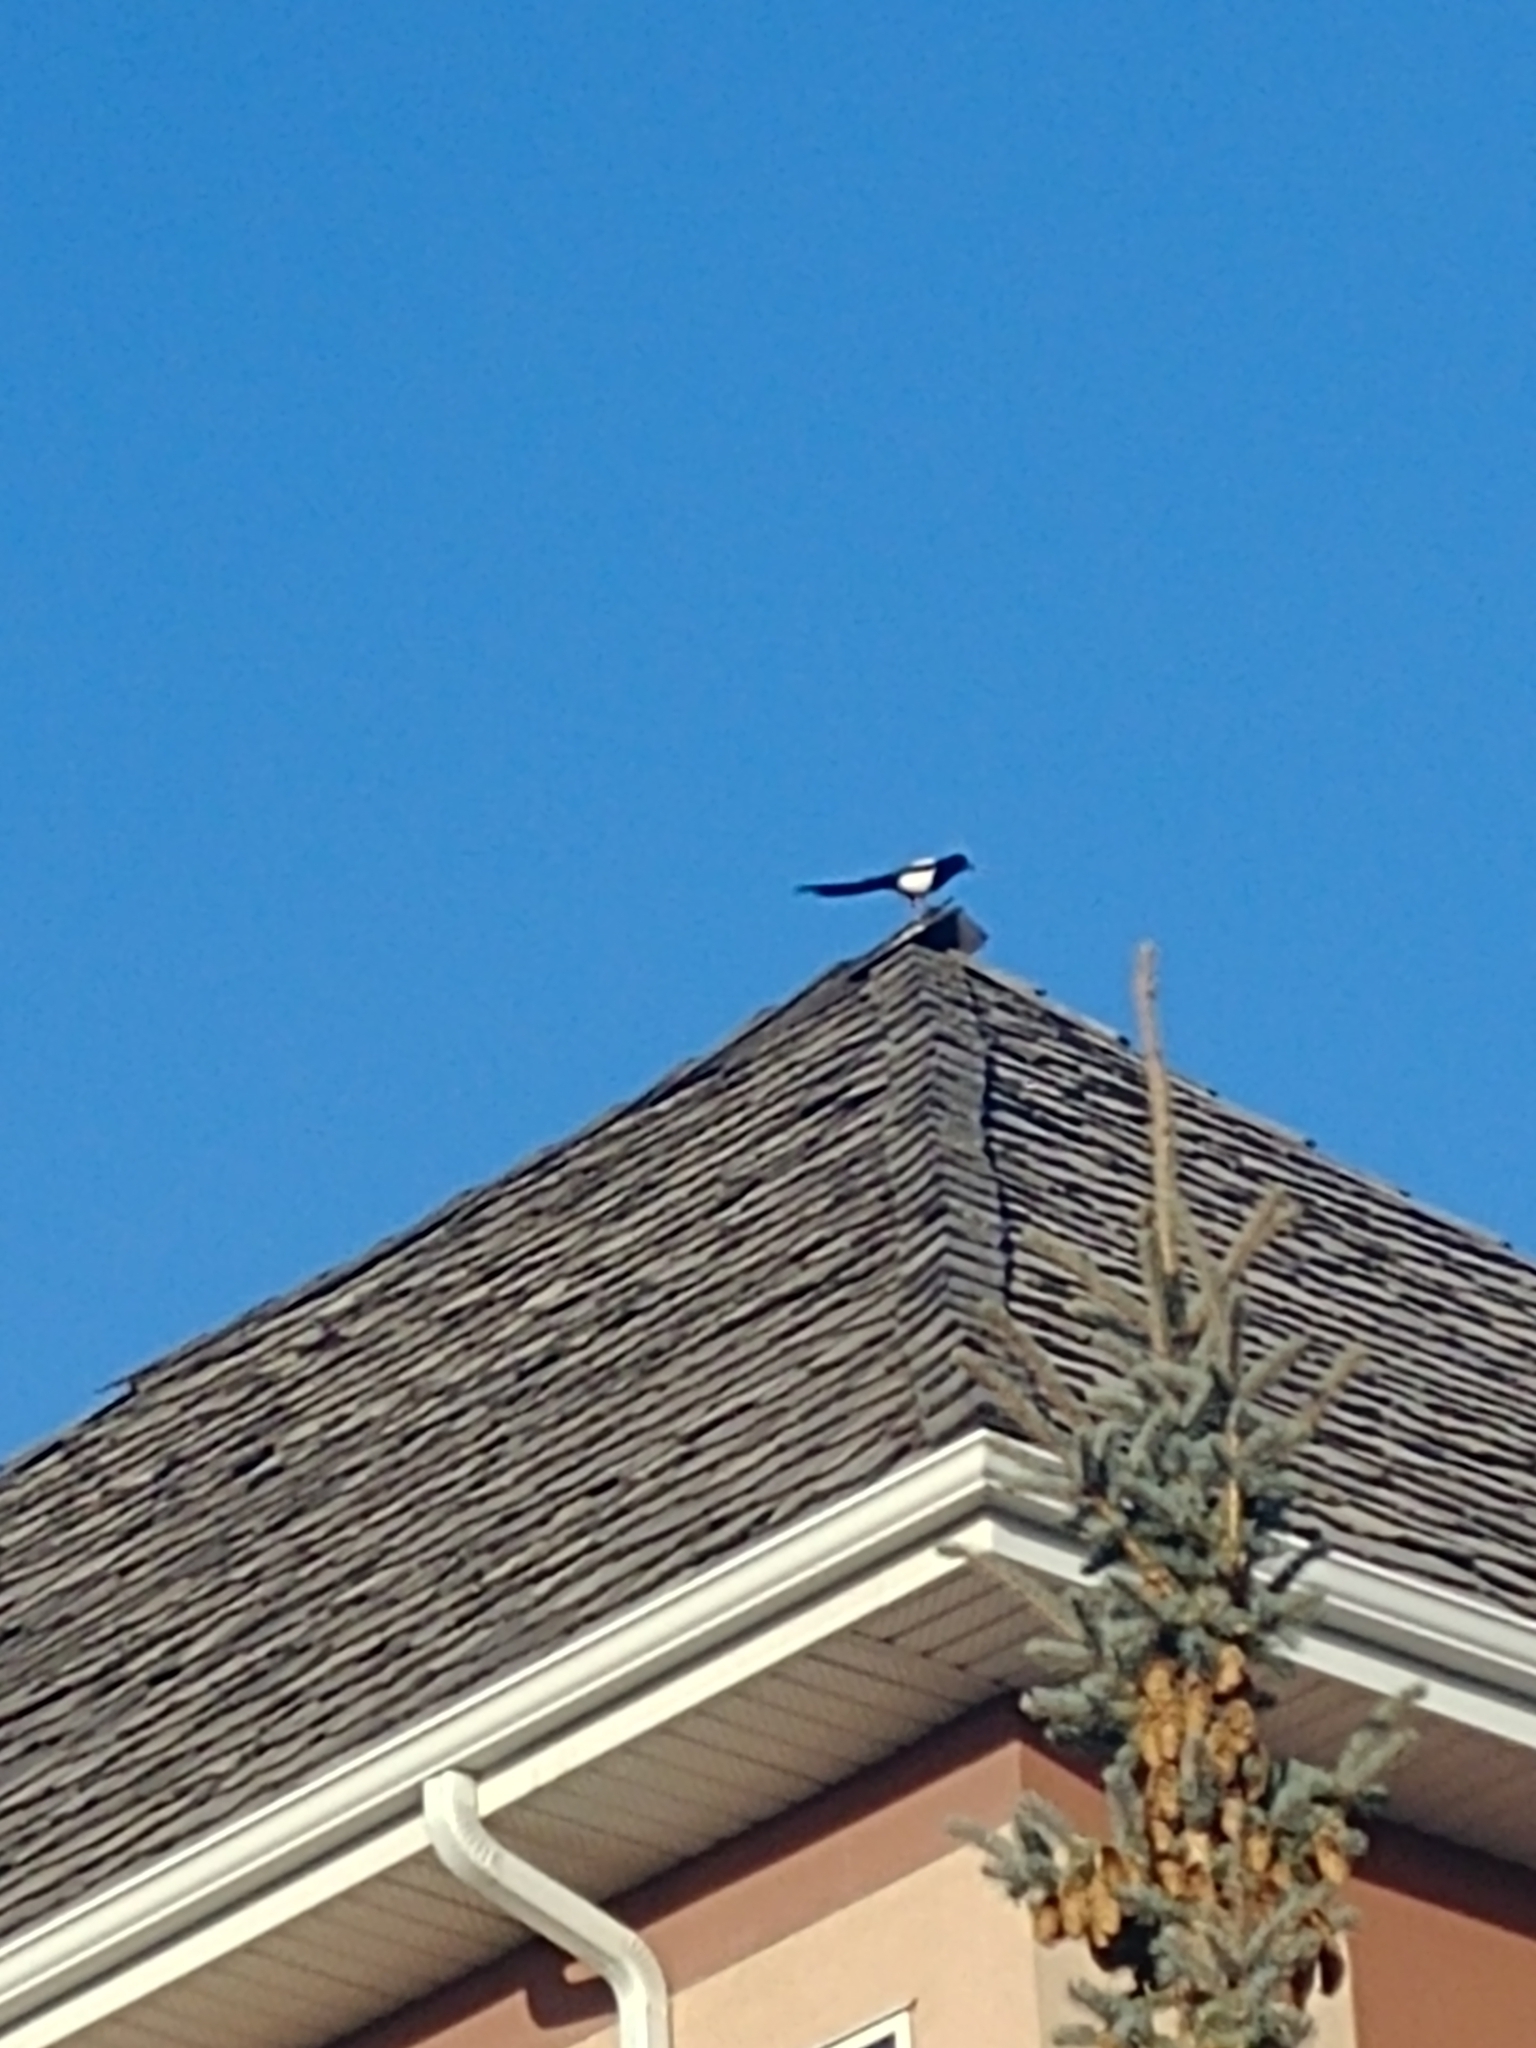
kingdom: Animalia
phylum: Chordata
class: Aves
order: Passeriformes
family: Corvidae
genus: Pica
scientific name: Pica hudsonia
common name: Black-billed magpie
